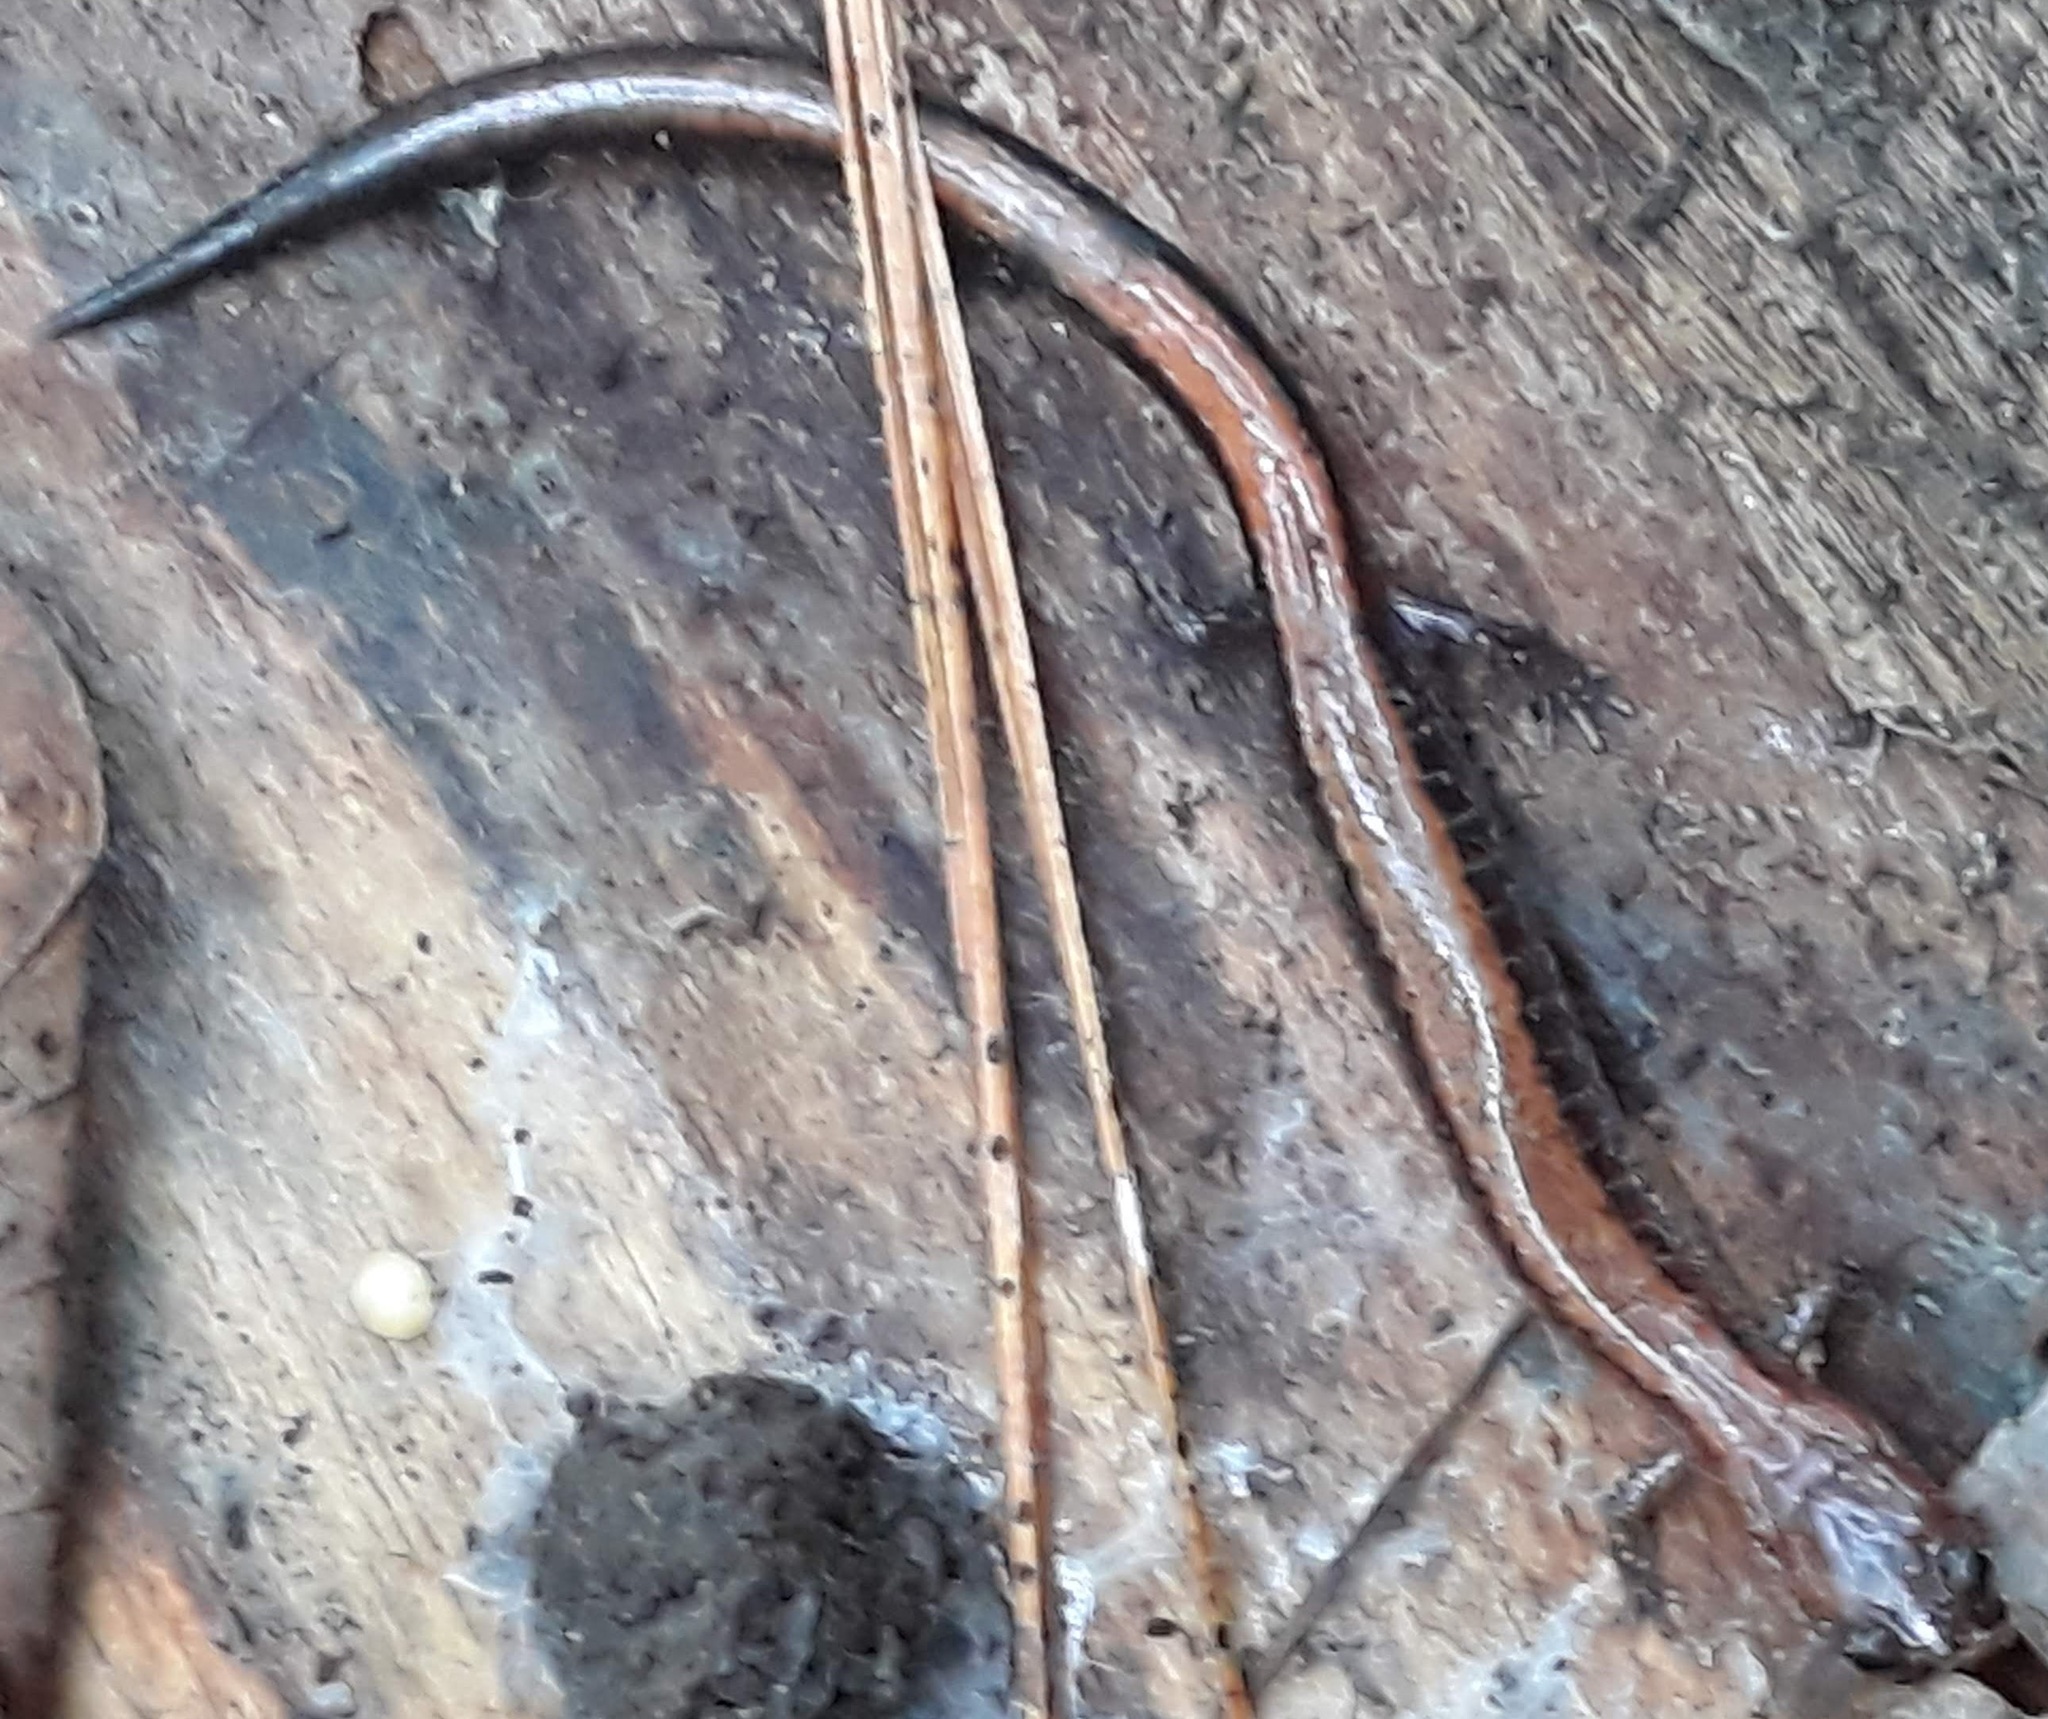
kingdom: Animalia
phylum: Chordata
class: Amphibia
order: Caudata
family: Plethodontidae
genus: Plethodon
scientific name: Plethodon cinereus
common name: Redback salamander
